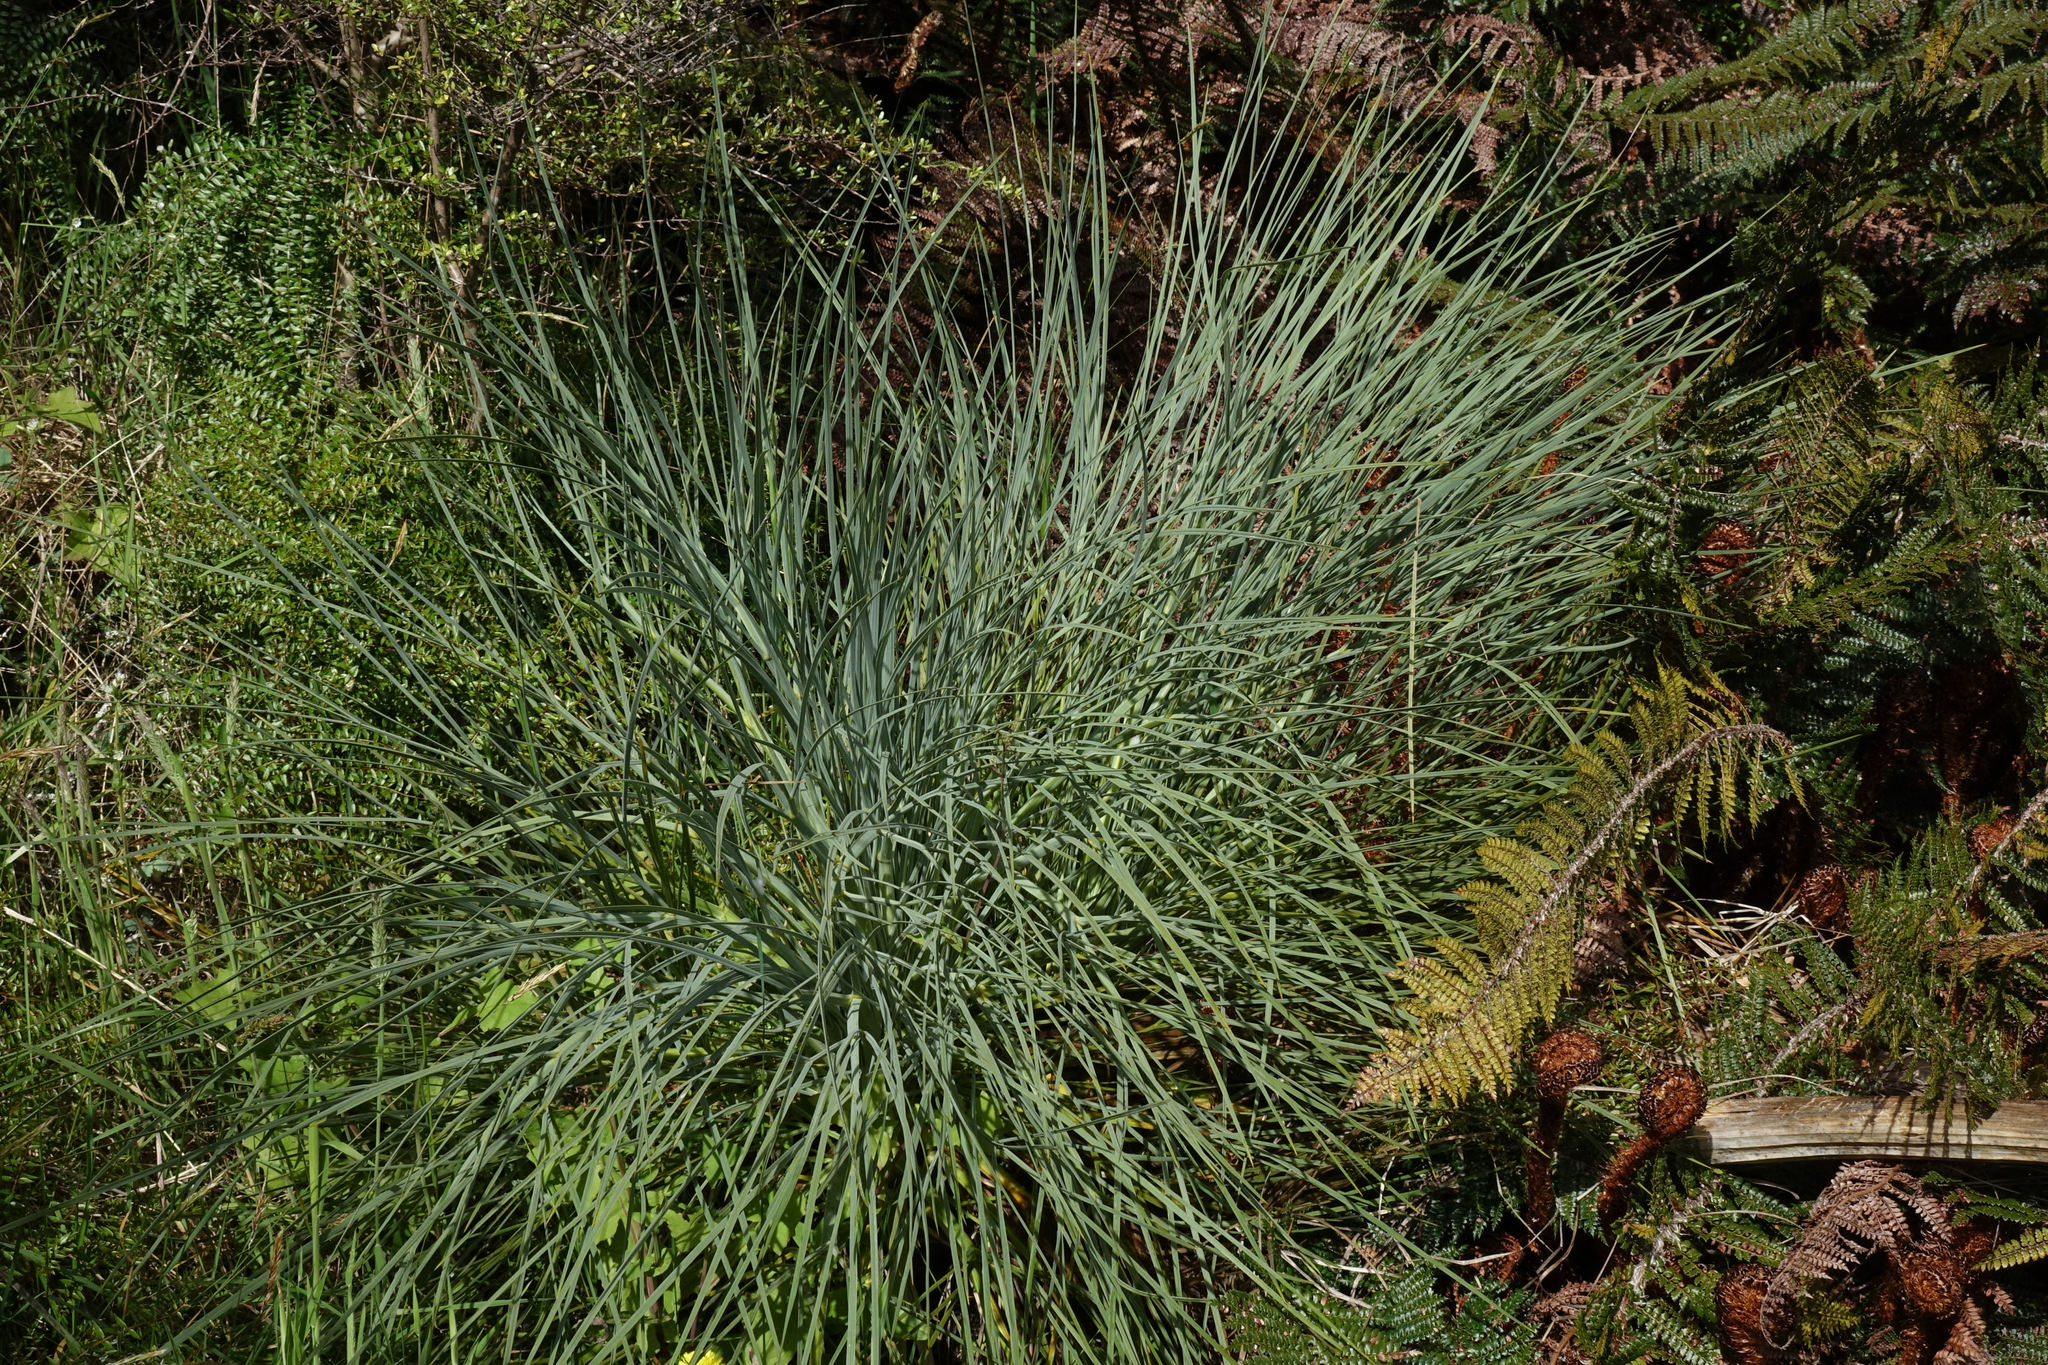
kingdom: Plantae
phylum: Tracheophyta
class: Magnoliopsida
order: Apiales
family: Apiaceae
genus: Aciphylla
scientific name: Aciphylla glaucescens
